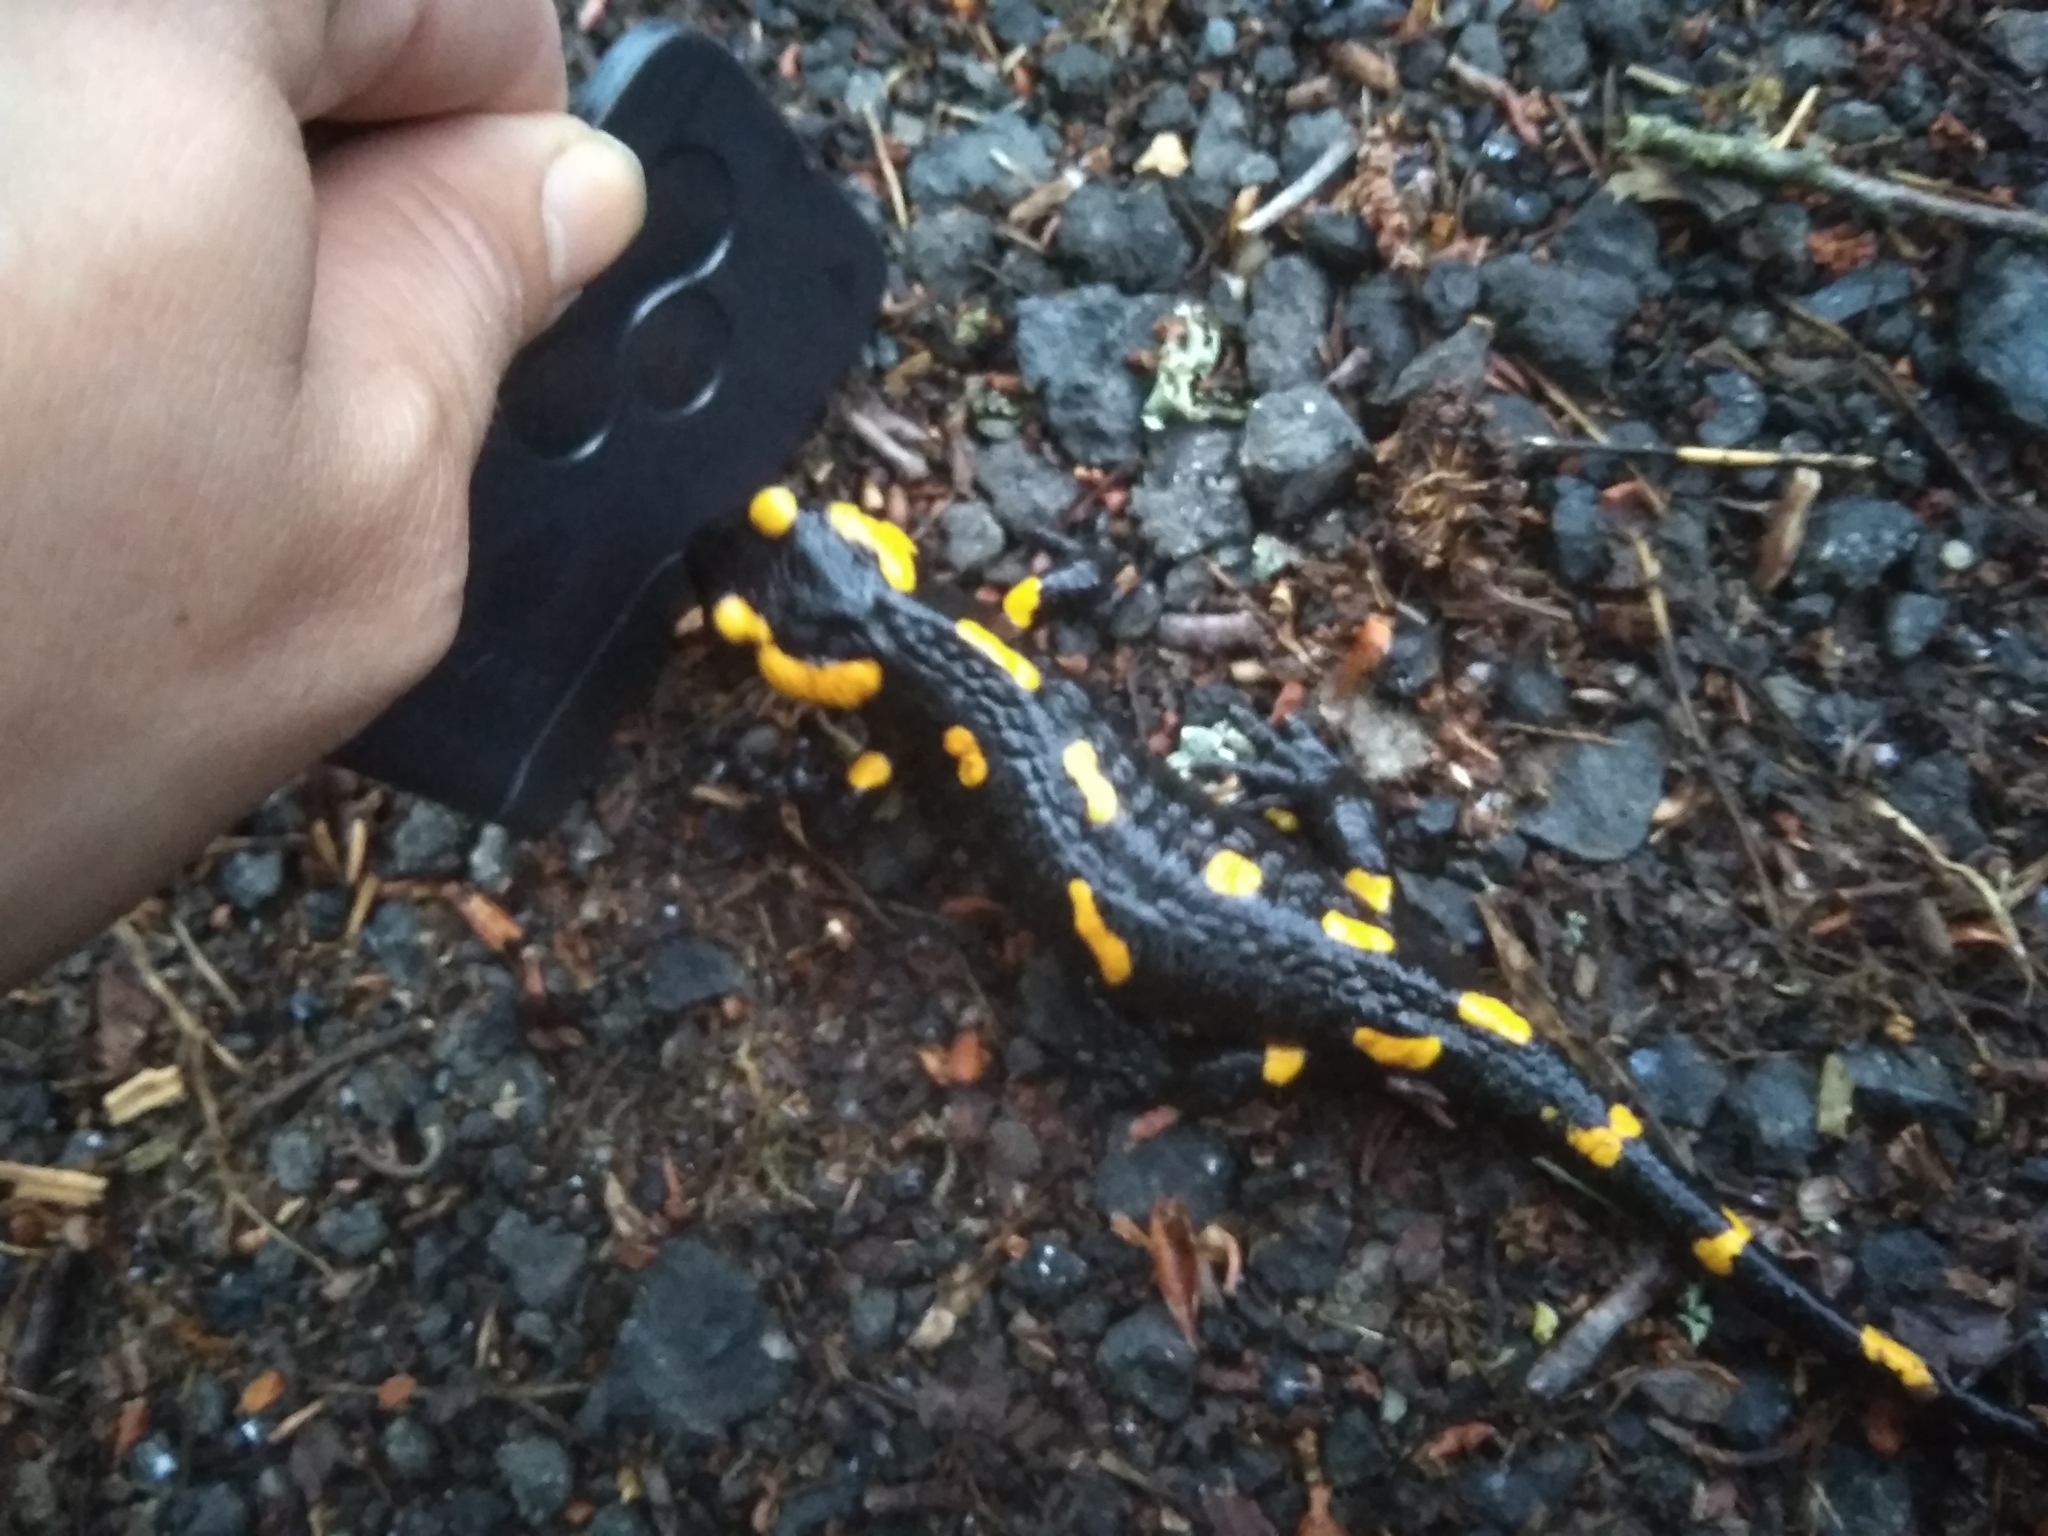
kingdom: Animalia
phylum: Chordata
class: Amphibia
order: Caudata
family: Salamandridae
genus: Salamandra
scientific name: Salamandra salamandra
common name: Fire salamander
